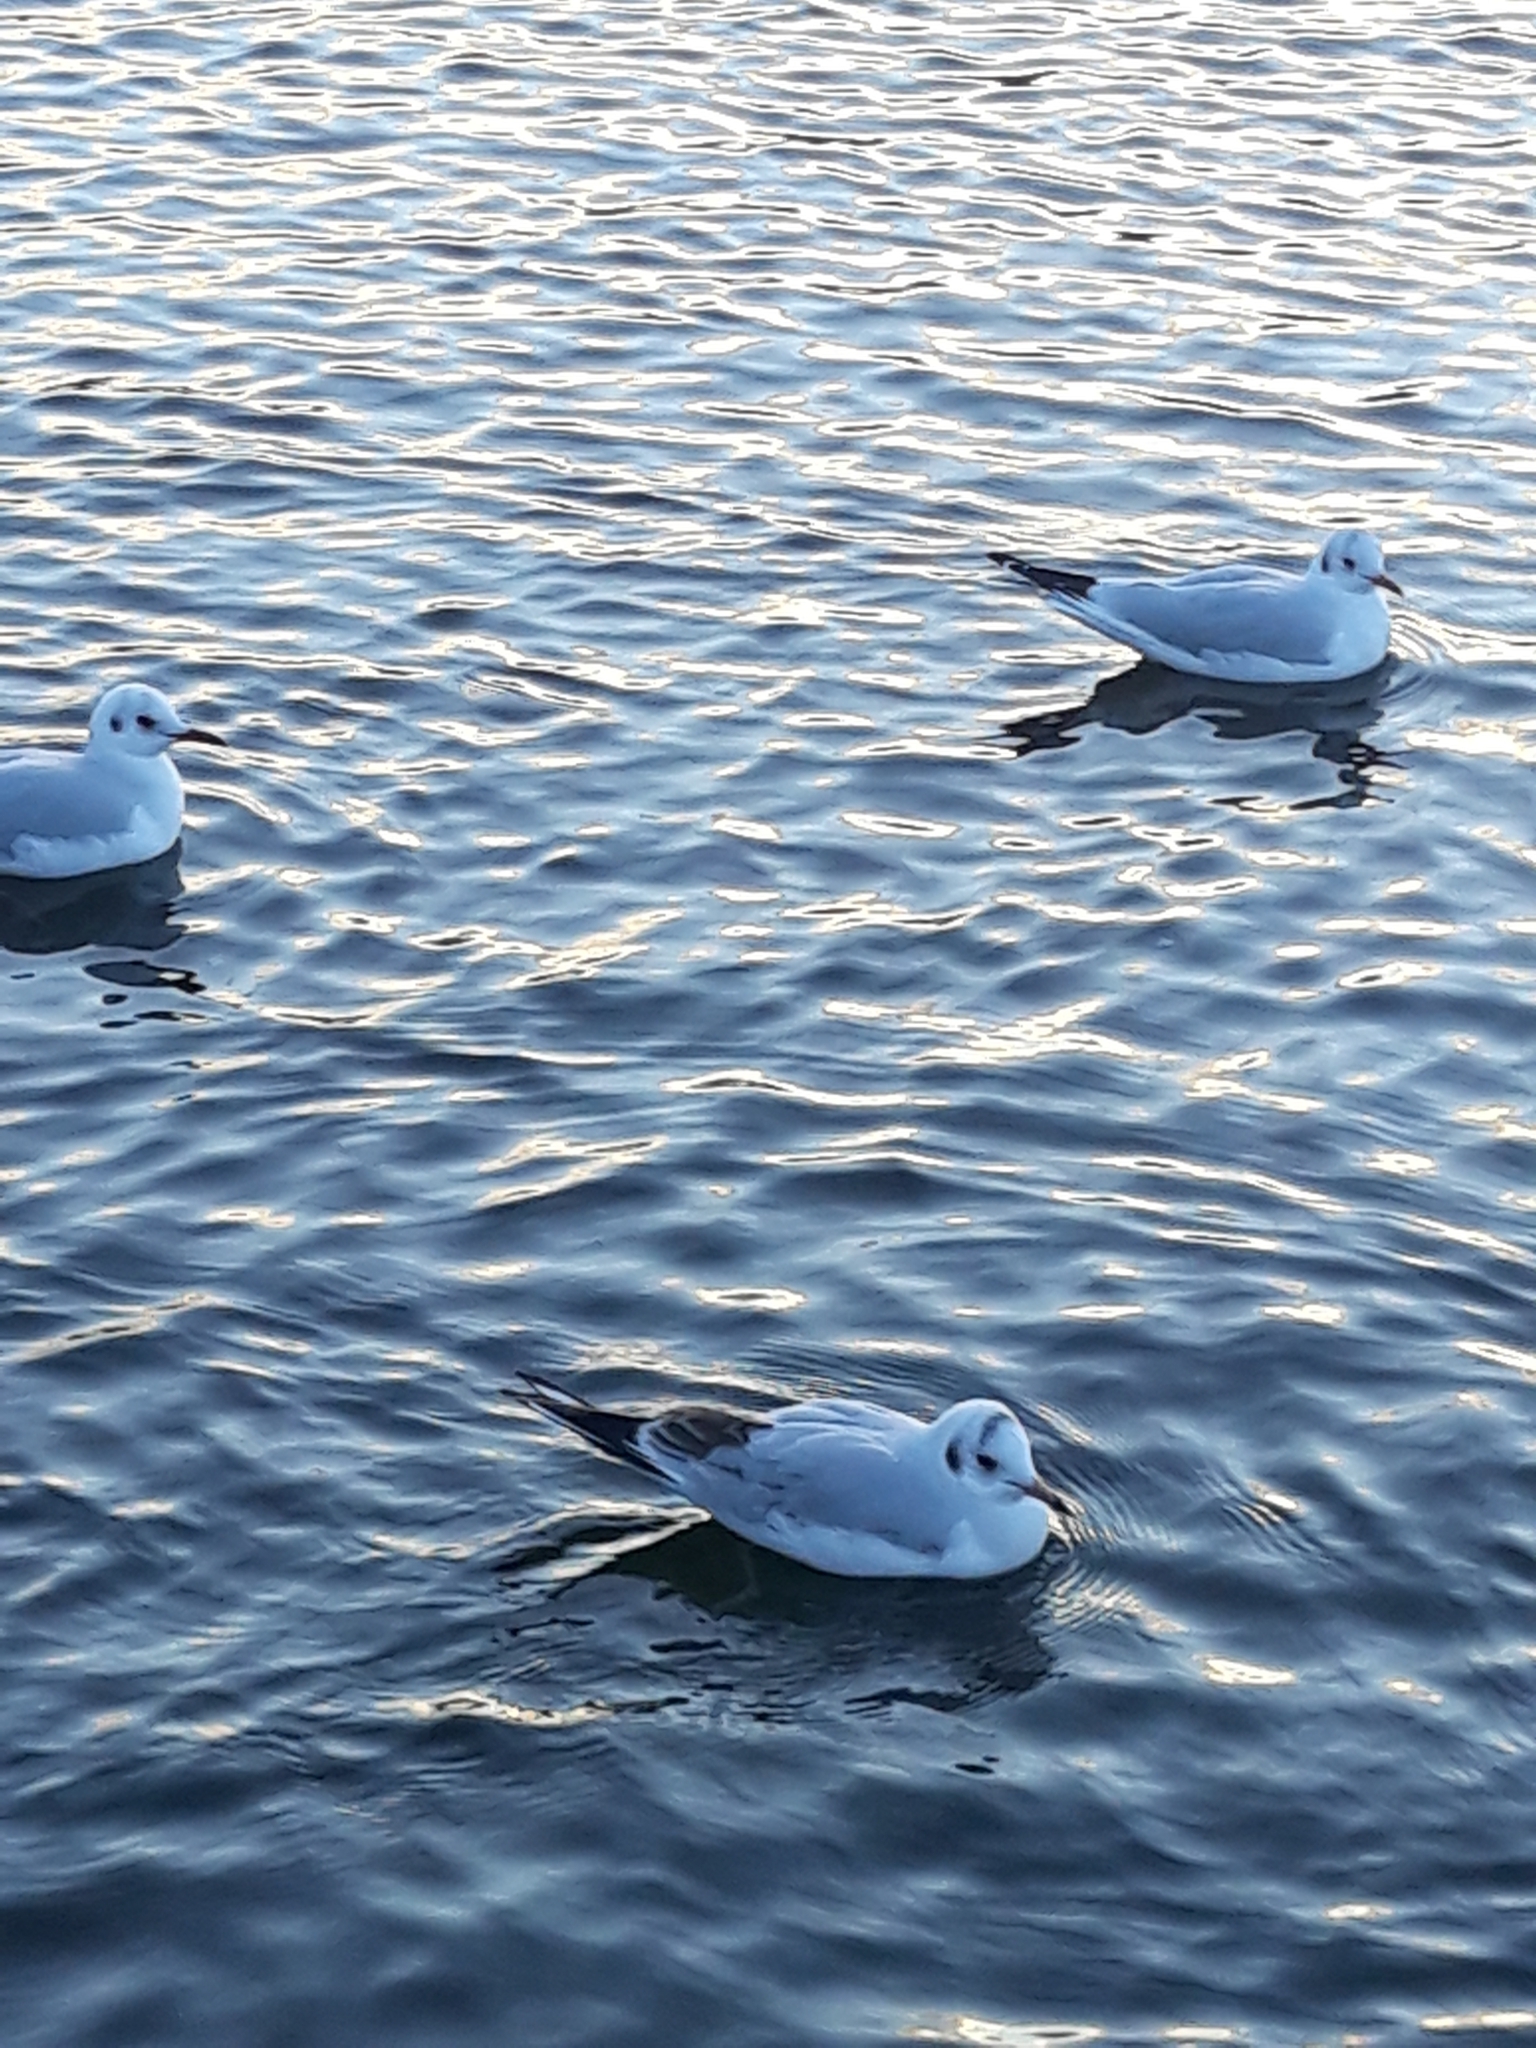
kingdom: Animalia
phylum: Chordata
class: Aves
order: Charadriiformes
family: Laridae
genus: Chroicocephalus
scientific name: Chroicocephalus ridibundus
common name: Black-headed gull
